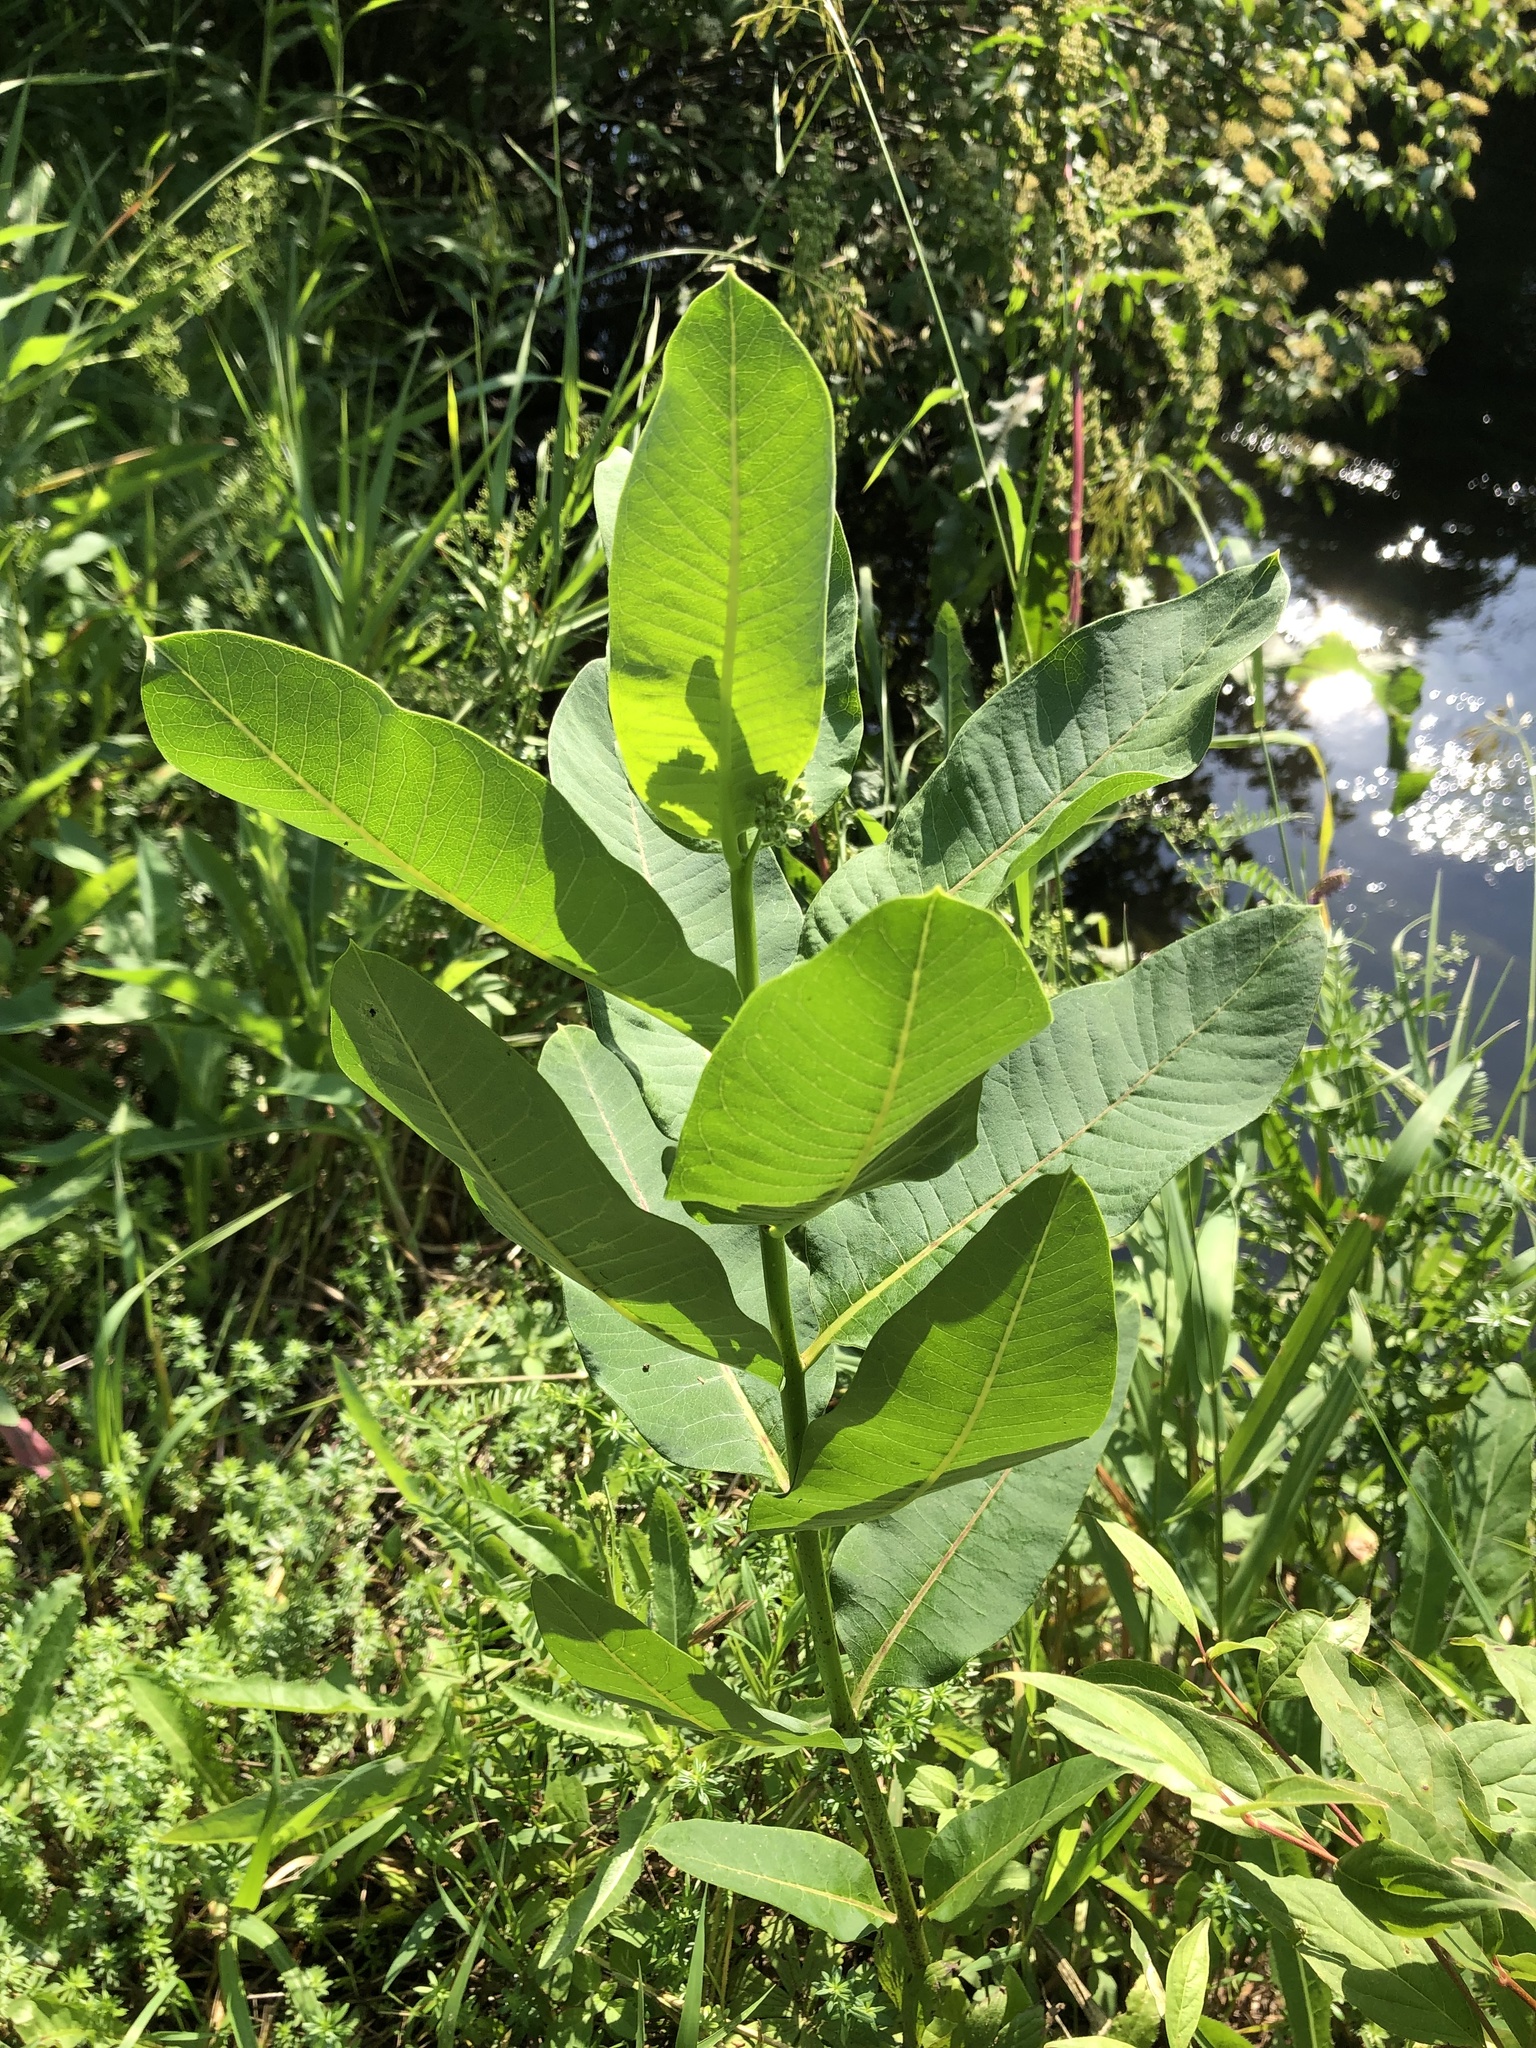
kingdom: Plantae
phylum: Tracheophyta
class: Magnoliopsida
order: Gentianales
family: Apocynaceae
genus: Asclepias
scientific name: Asclepias syriaca
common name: Common milkweed
